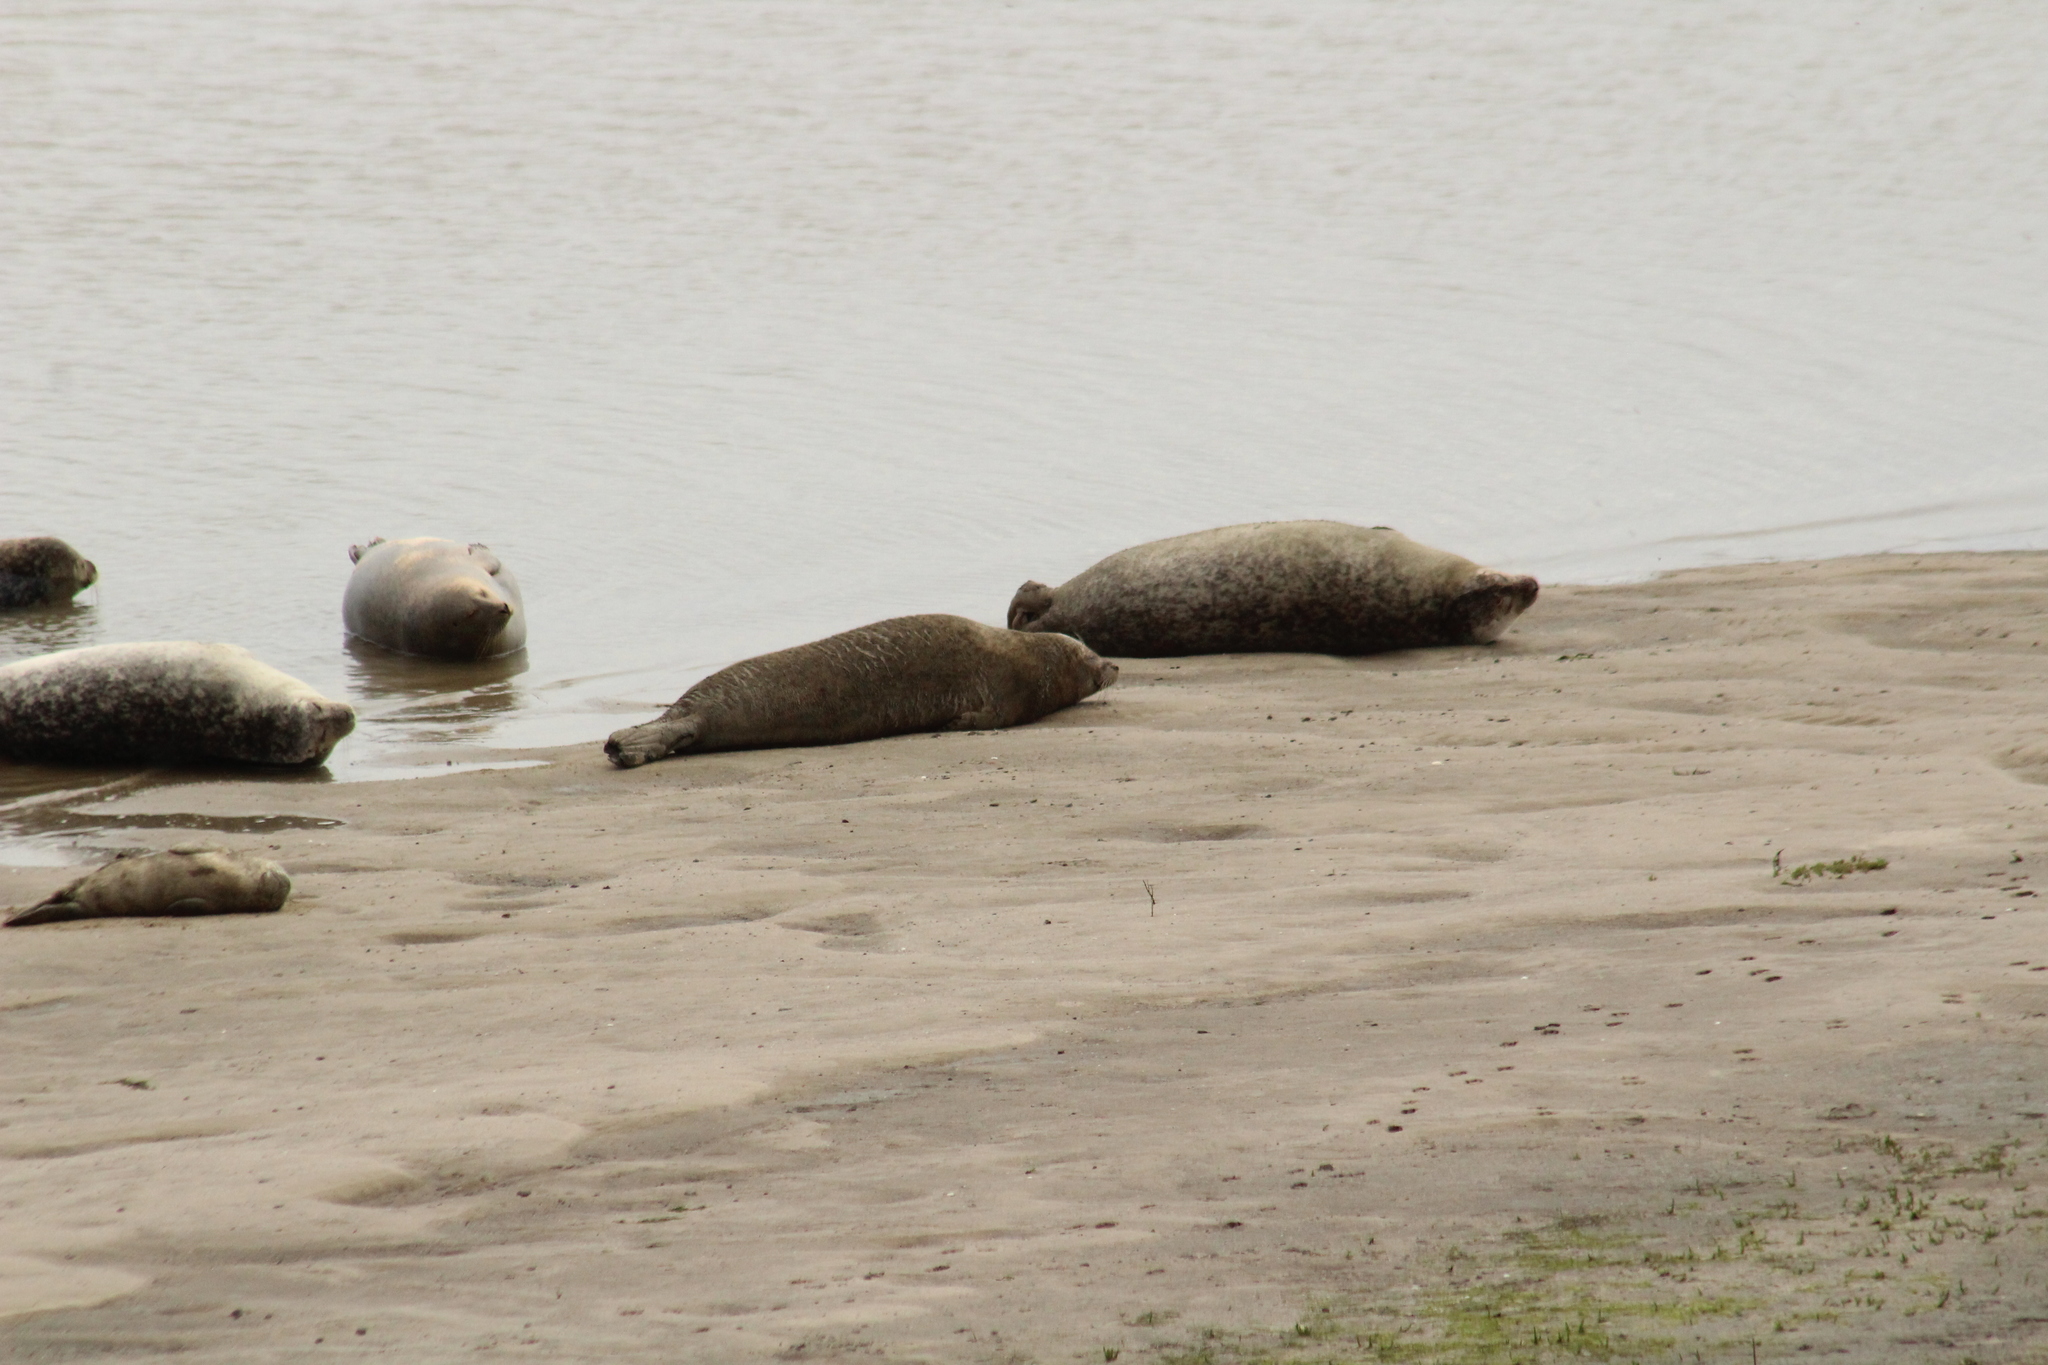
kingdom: Animalia
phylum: Chordata
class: Mammalia
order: Carnivora
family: Phocidae
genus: Phoca
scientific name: Phoca vitulina
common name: Harbor seal
